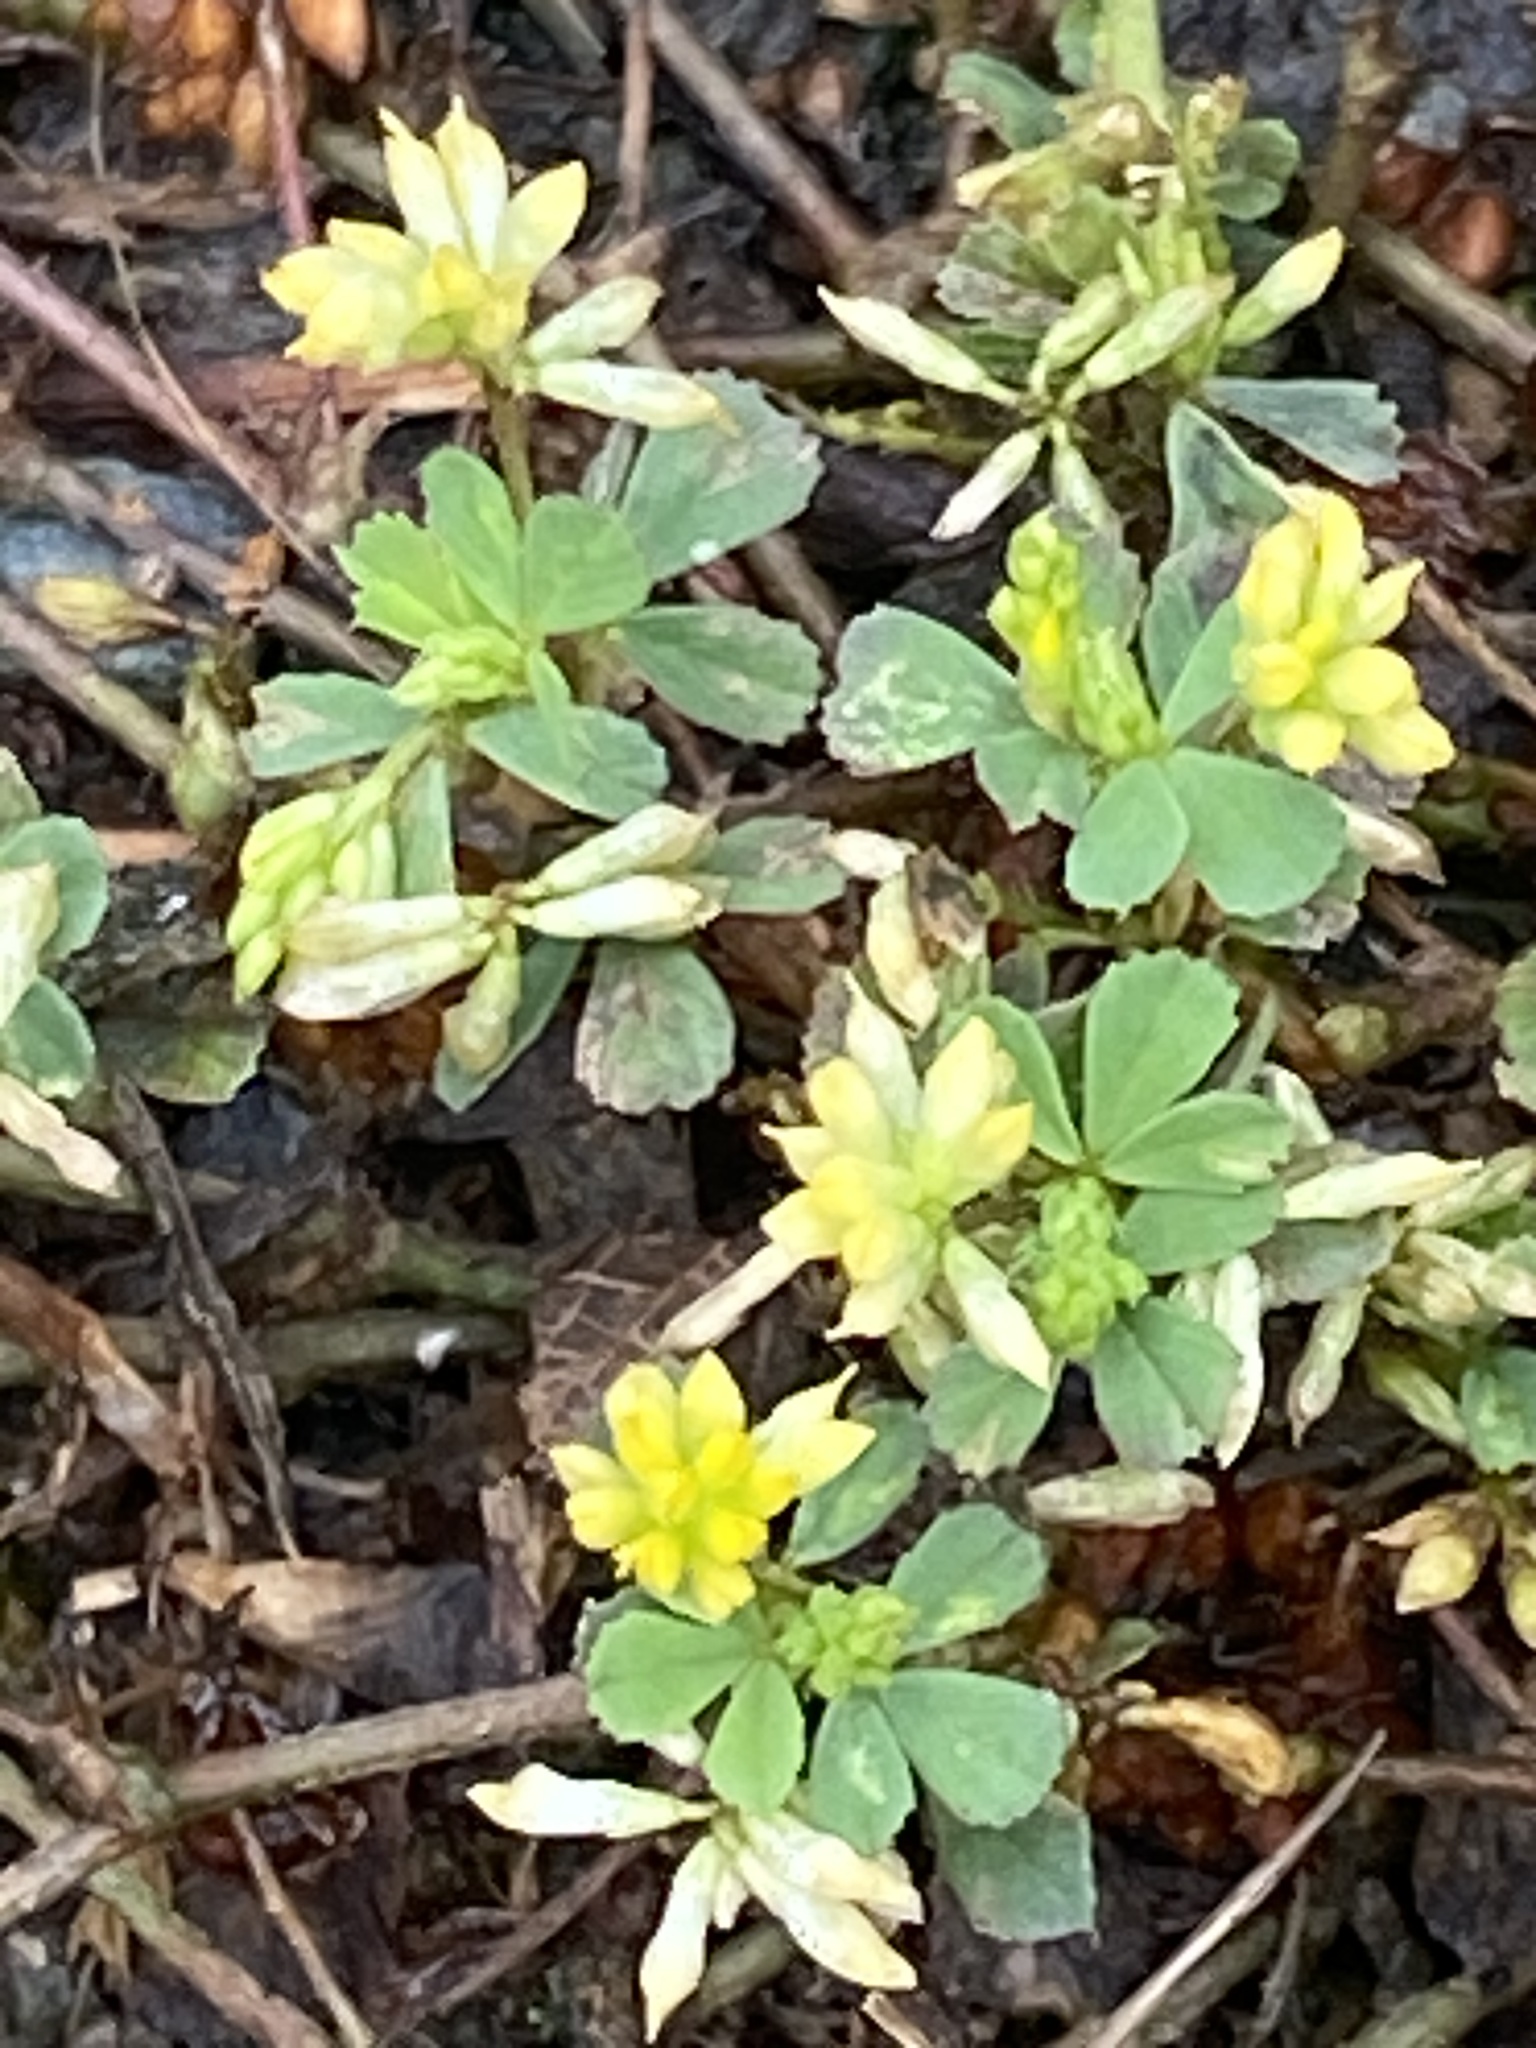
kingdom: Plantae
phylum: Tracheophyta
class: Magnoliopsida
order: Fabales
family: Fabaceae
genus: Trifolium
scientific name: Trifolium dubium
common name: Suckling clover
